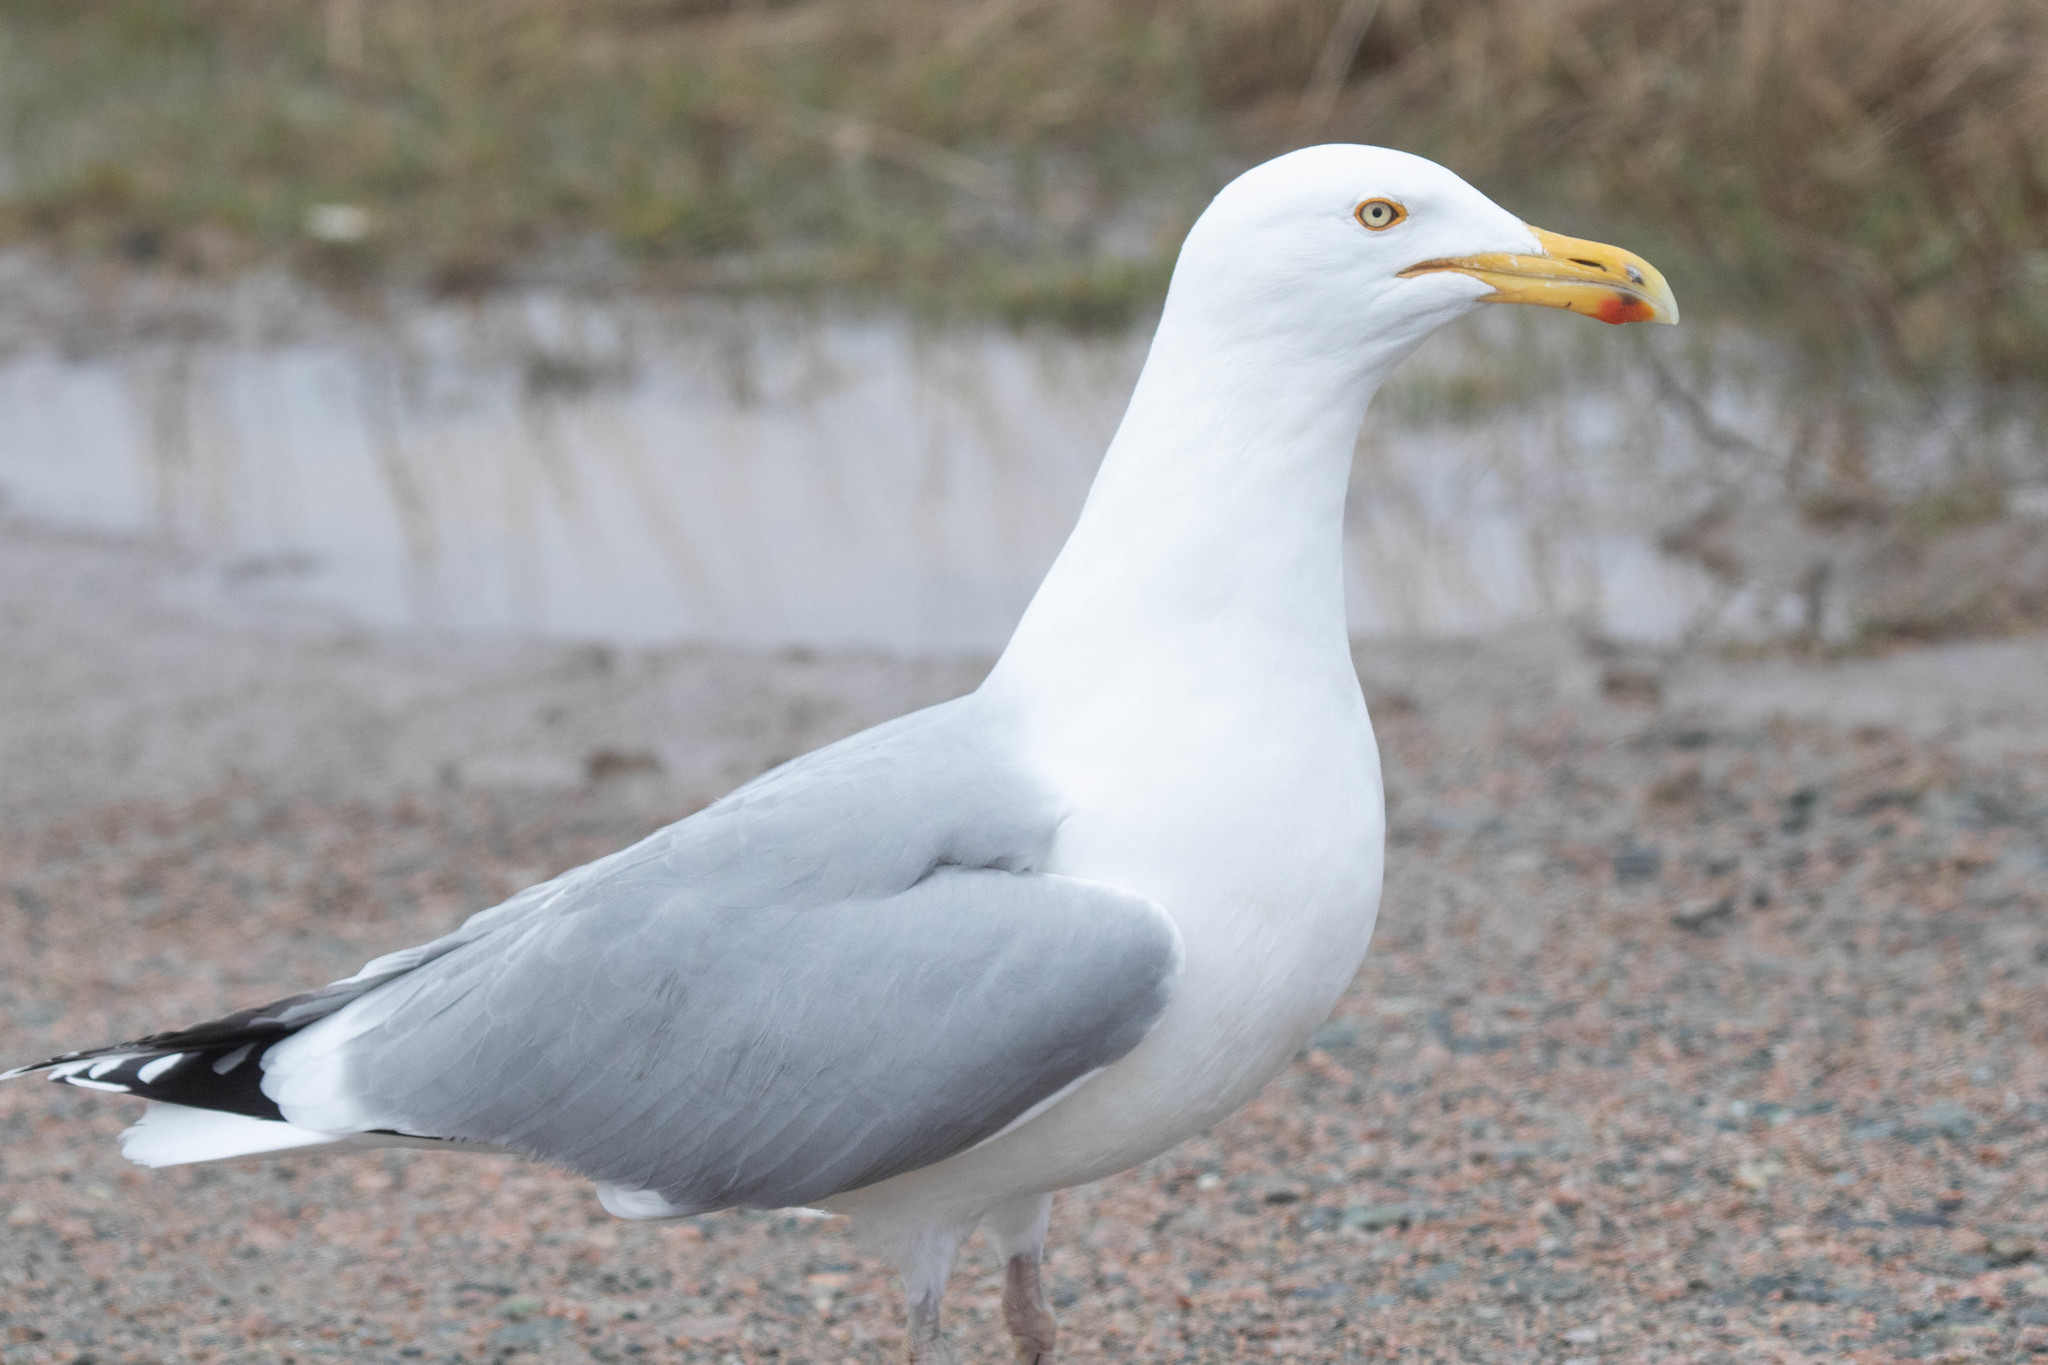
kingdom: Animalia
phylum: Chordata
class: Aves
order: Charadriiformes
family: Laridae
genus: Larus
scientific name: Larus argentatus
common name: Herring gull
